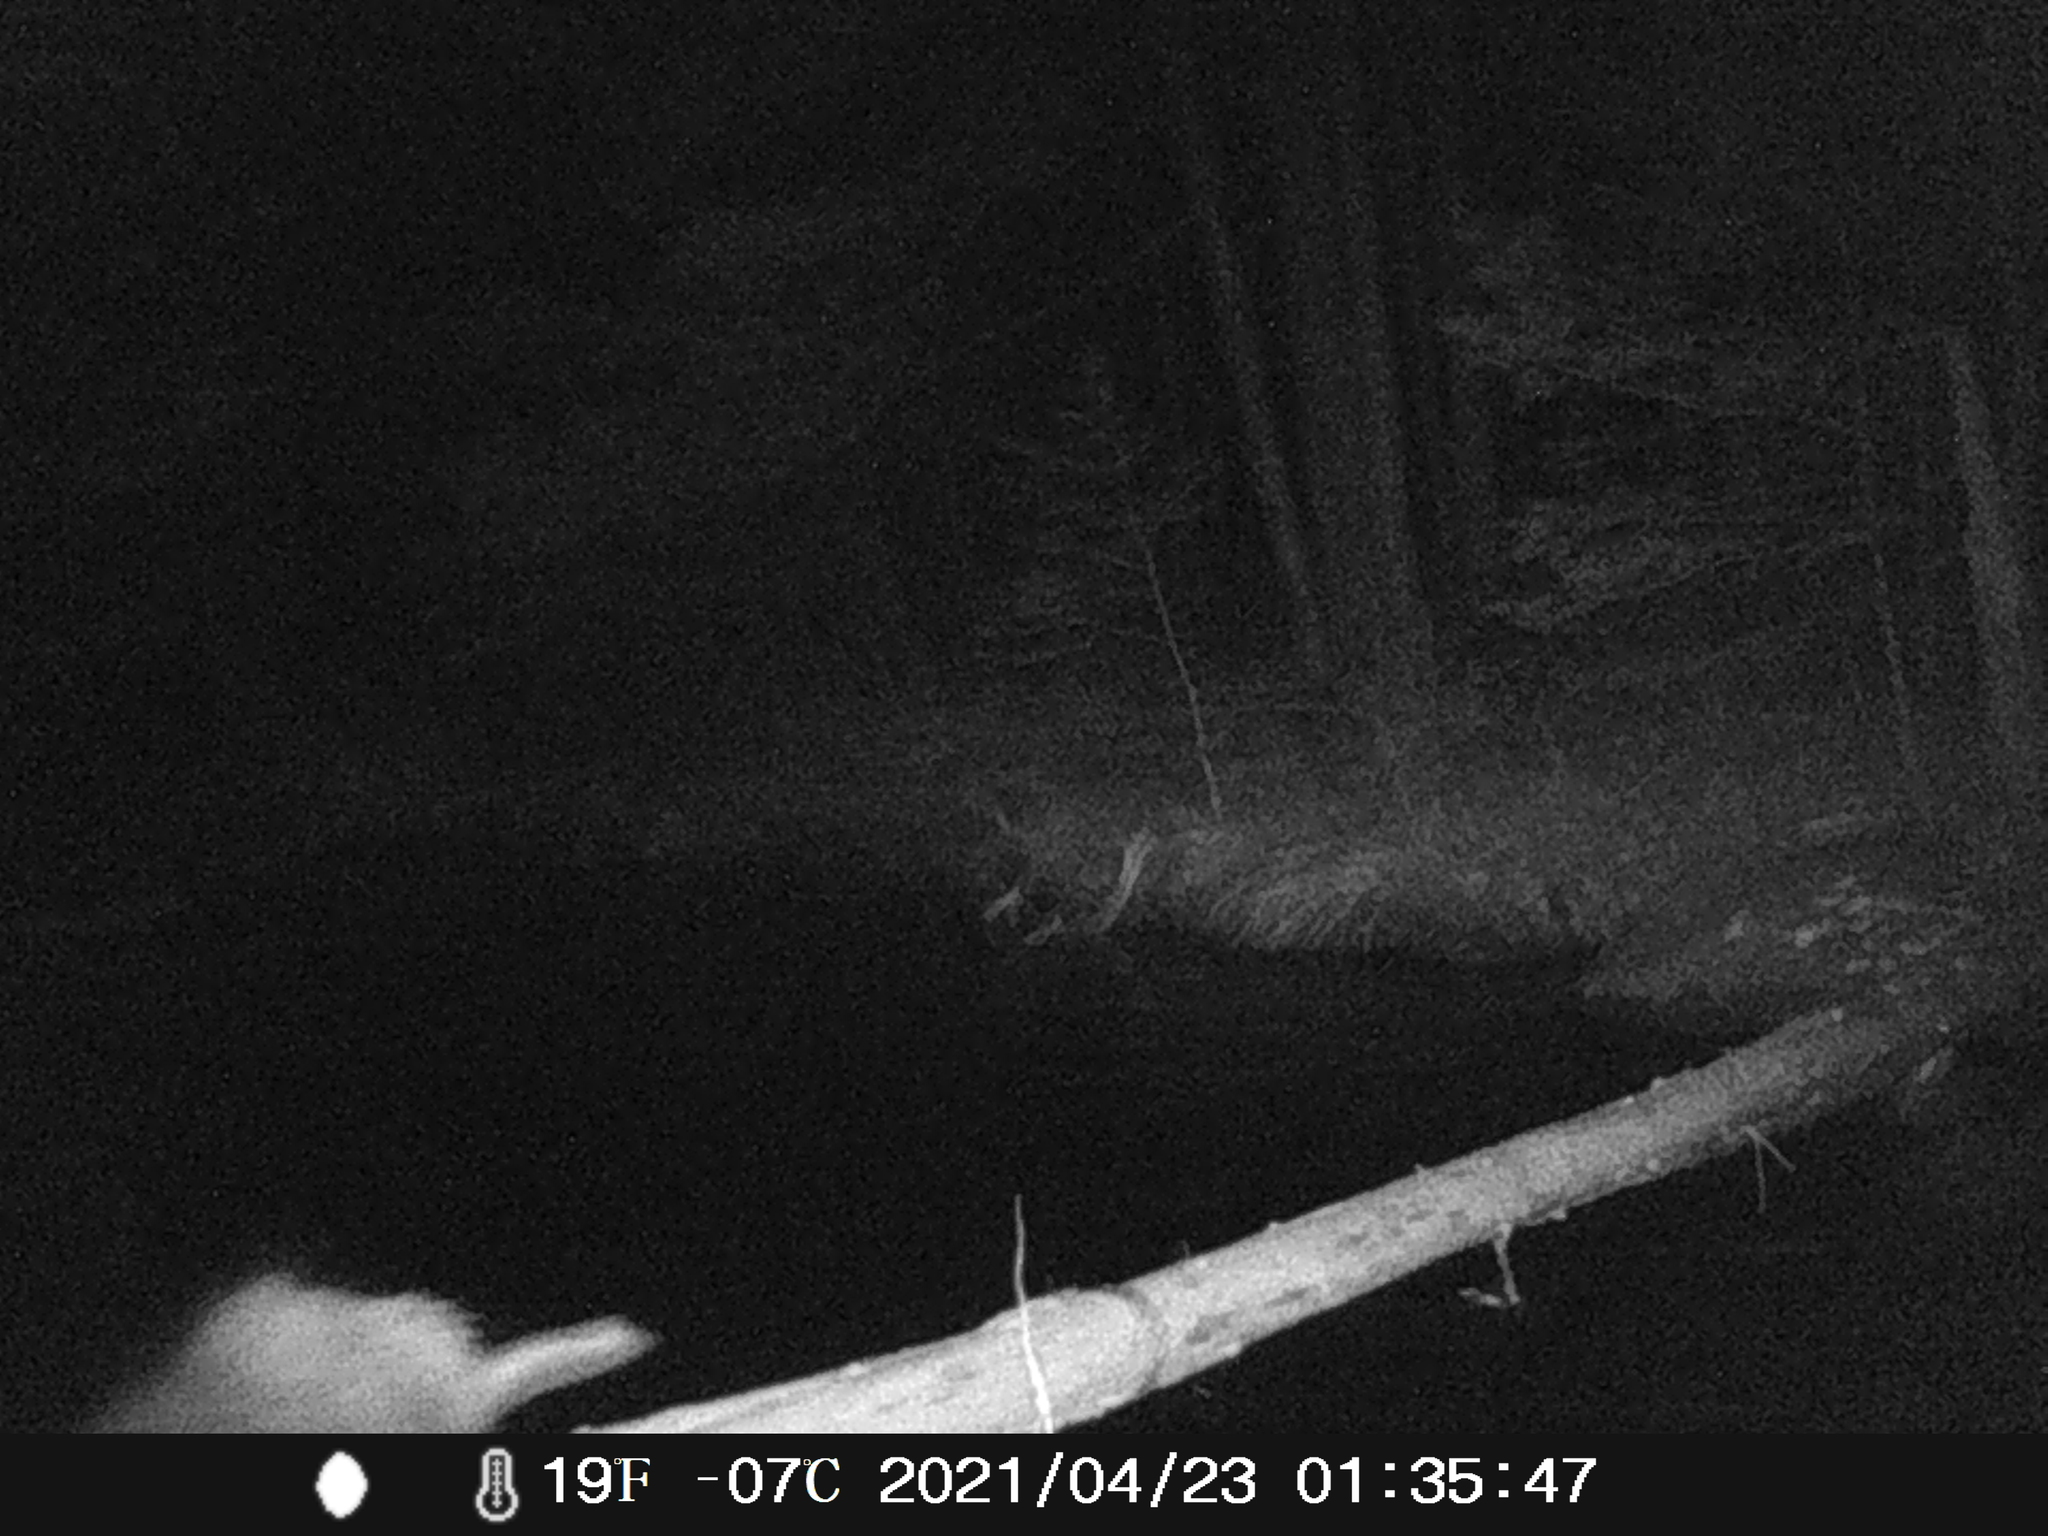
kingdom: Animalia
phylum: Chordata
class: Mammalia
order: Rodentia
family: Erethizontidae
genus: Erethizon
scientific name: Erethizon dorsatus
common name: North american porcupine
